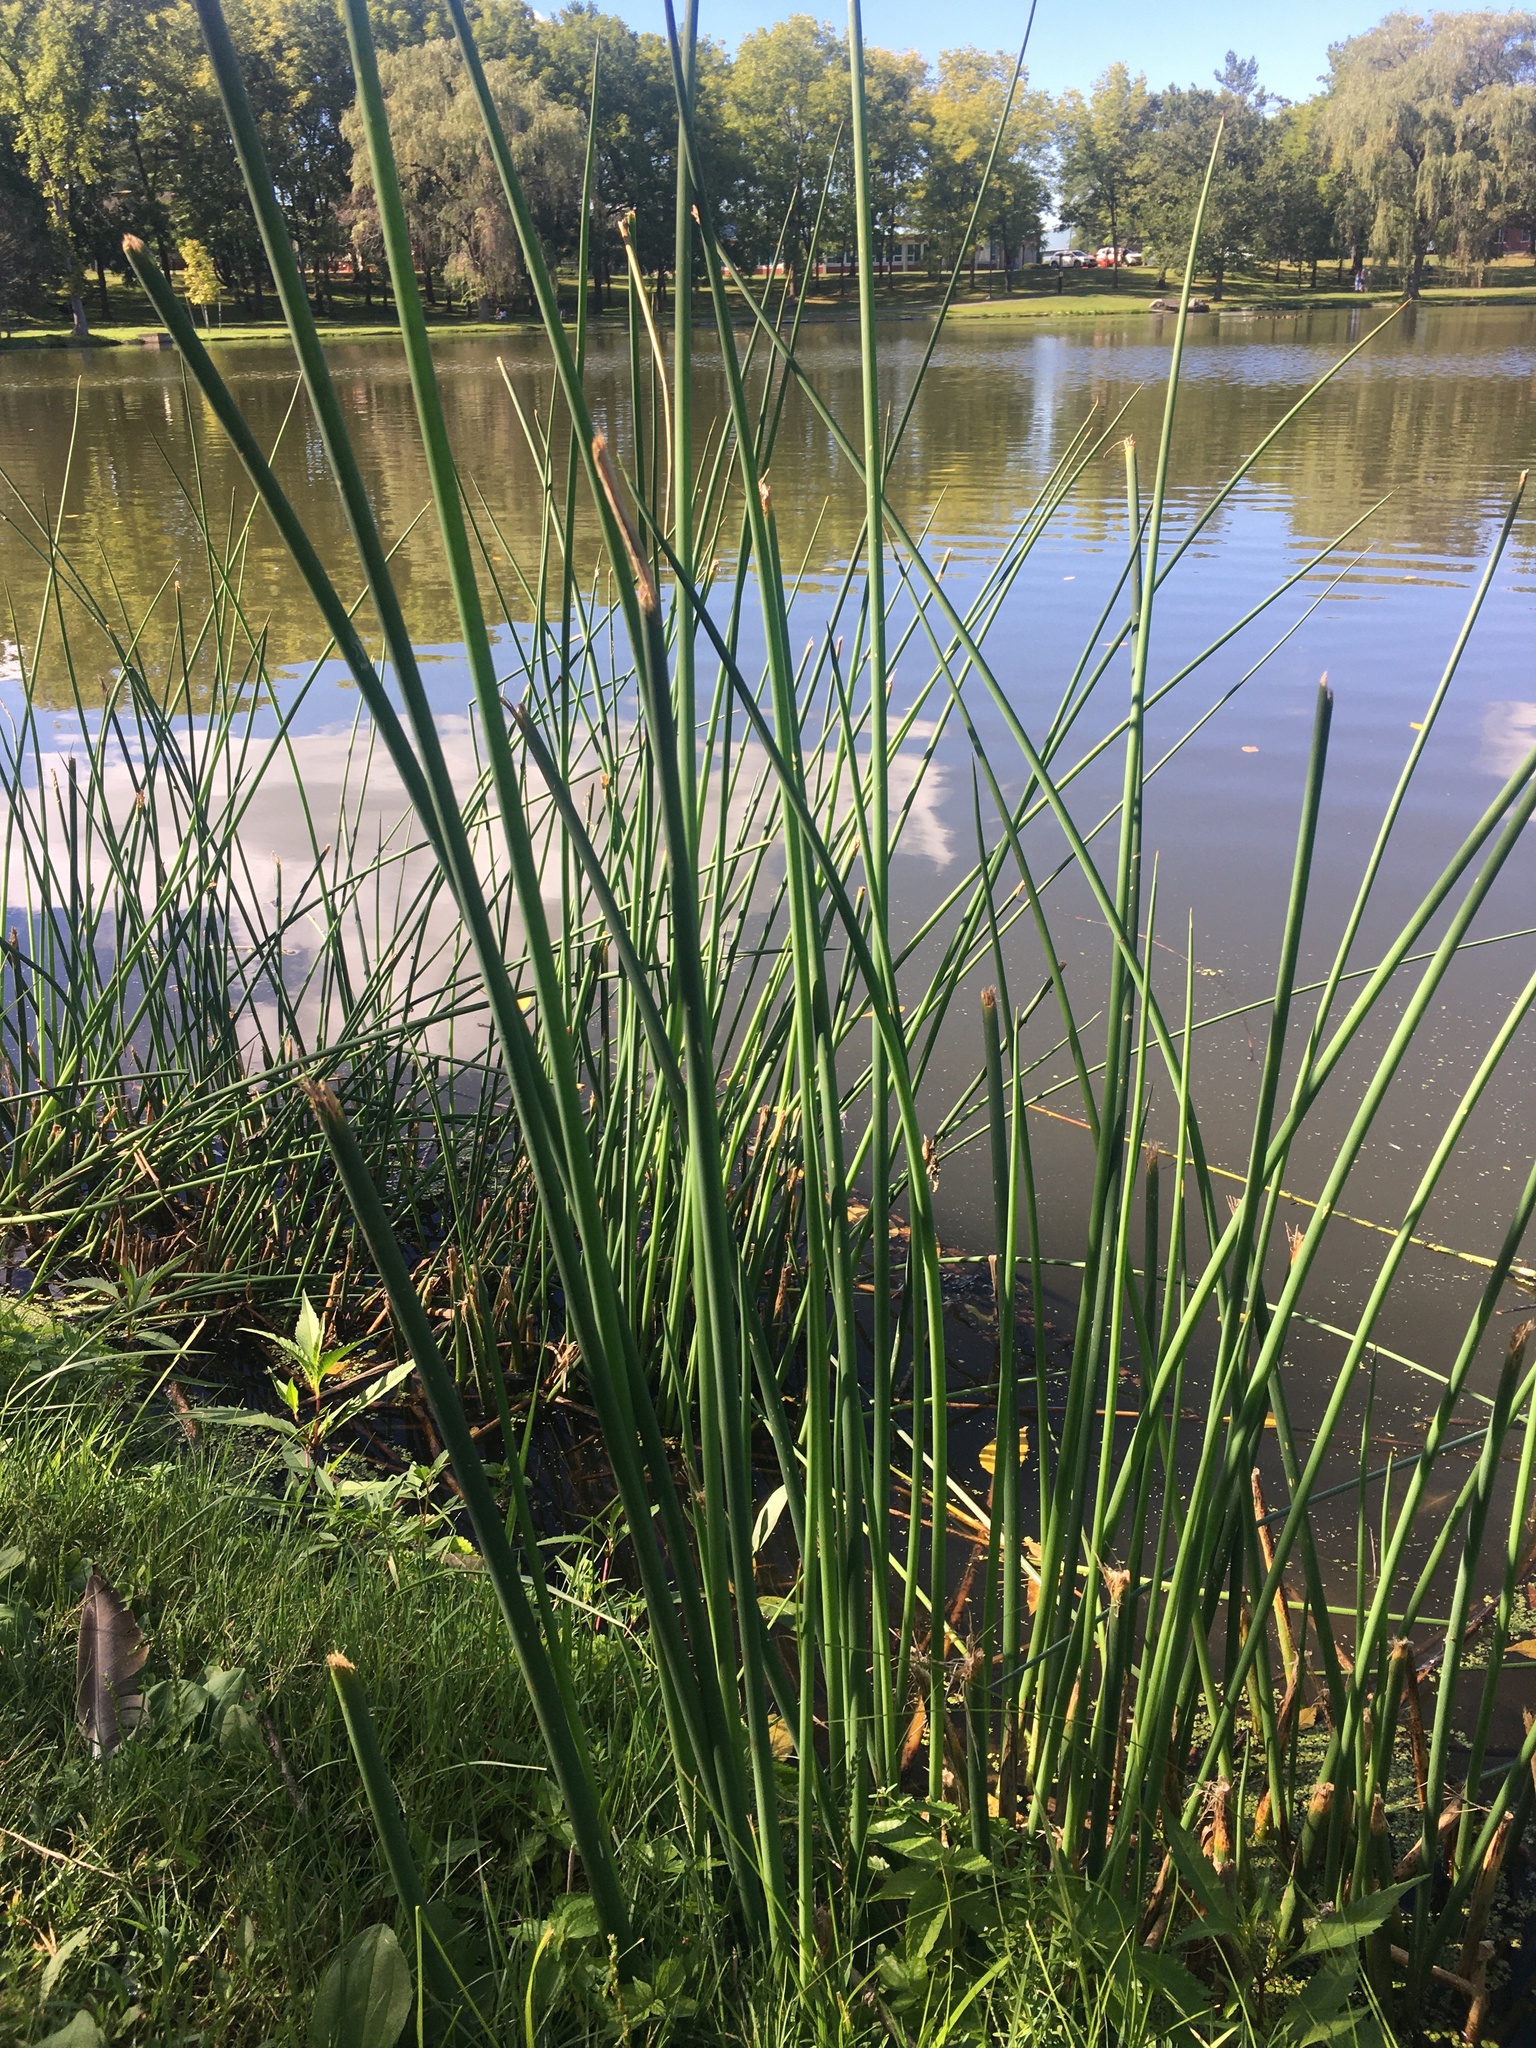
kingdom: Plantae
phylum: Tracheophyta
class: Liliopsida
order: Poales
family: Cyperaceae
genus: Schoenoplectus
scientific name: Schoenoplectus tabernaemontani
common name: Grey club-rush
